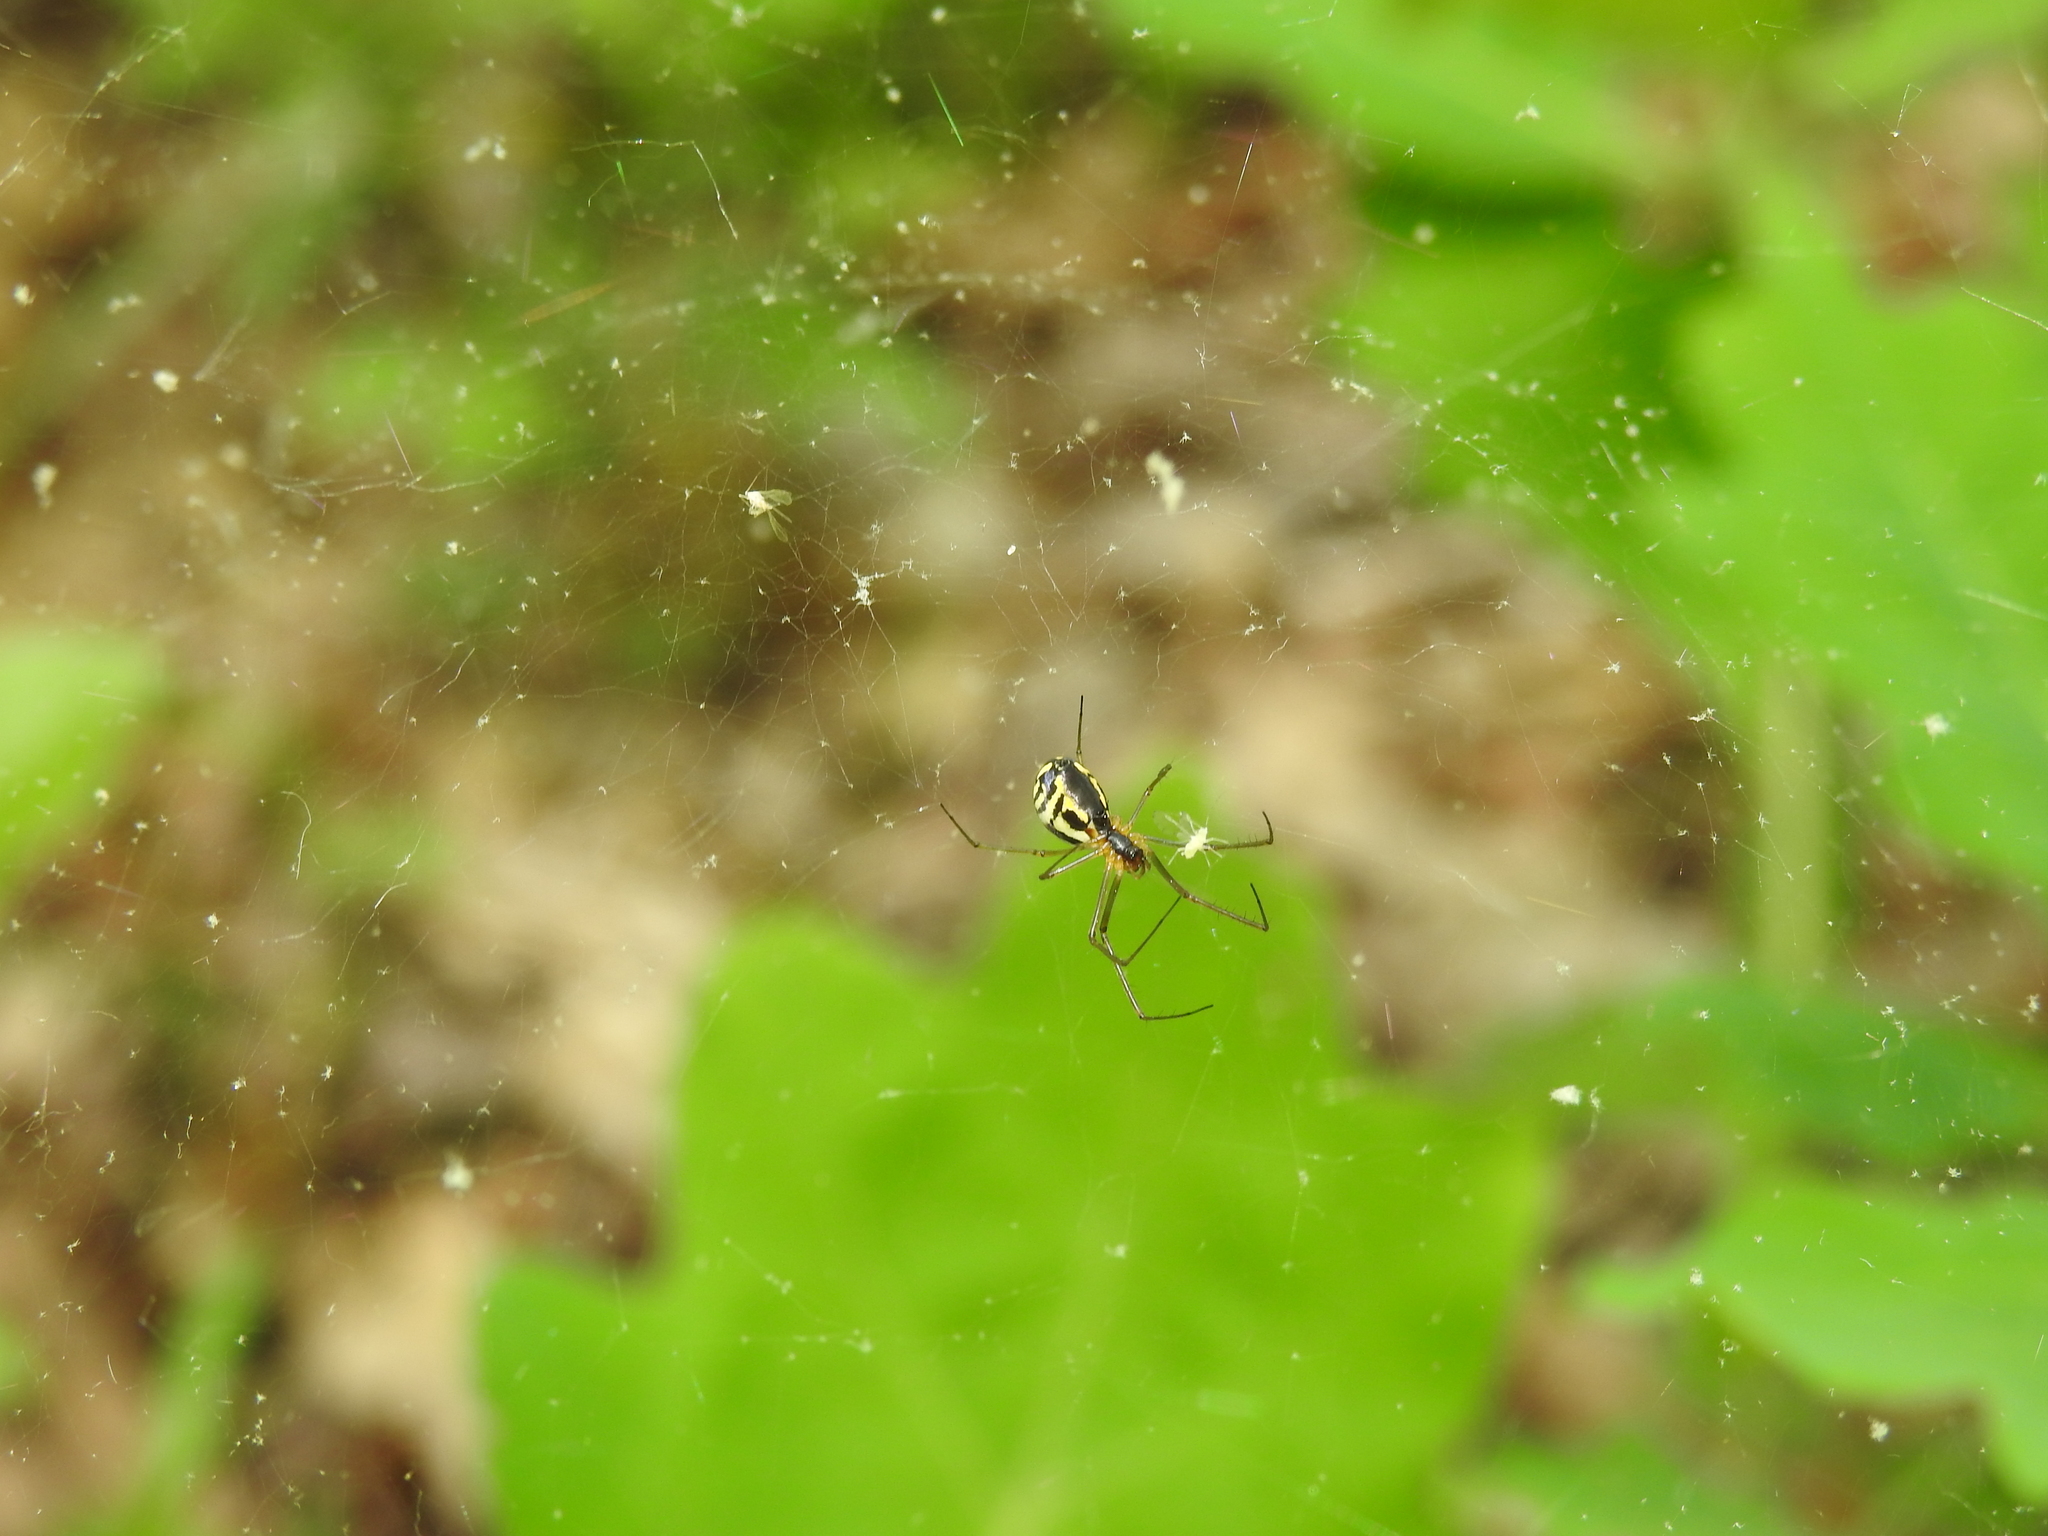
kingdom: Animalia
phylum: Arthropoda
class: Arachnida
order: Araneae
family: Linyphiidae
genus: Neriene
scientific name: Neriene radiata
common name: Filmy dome spider
